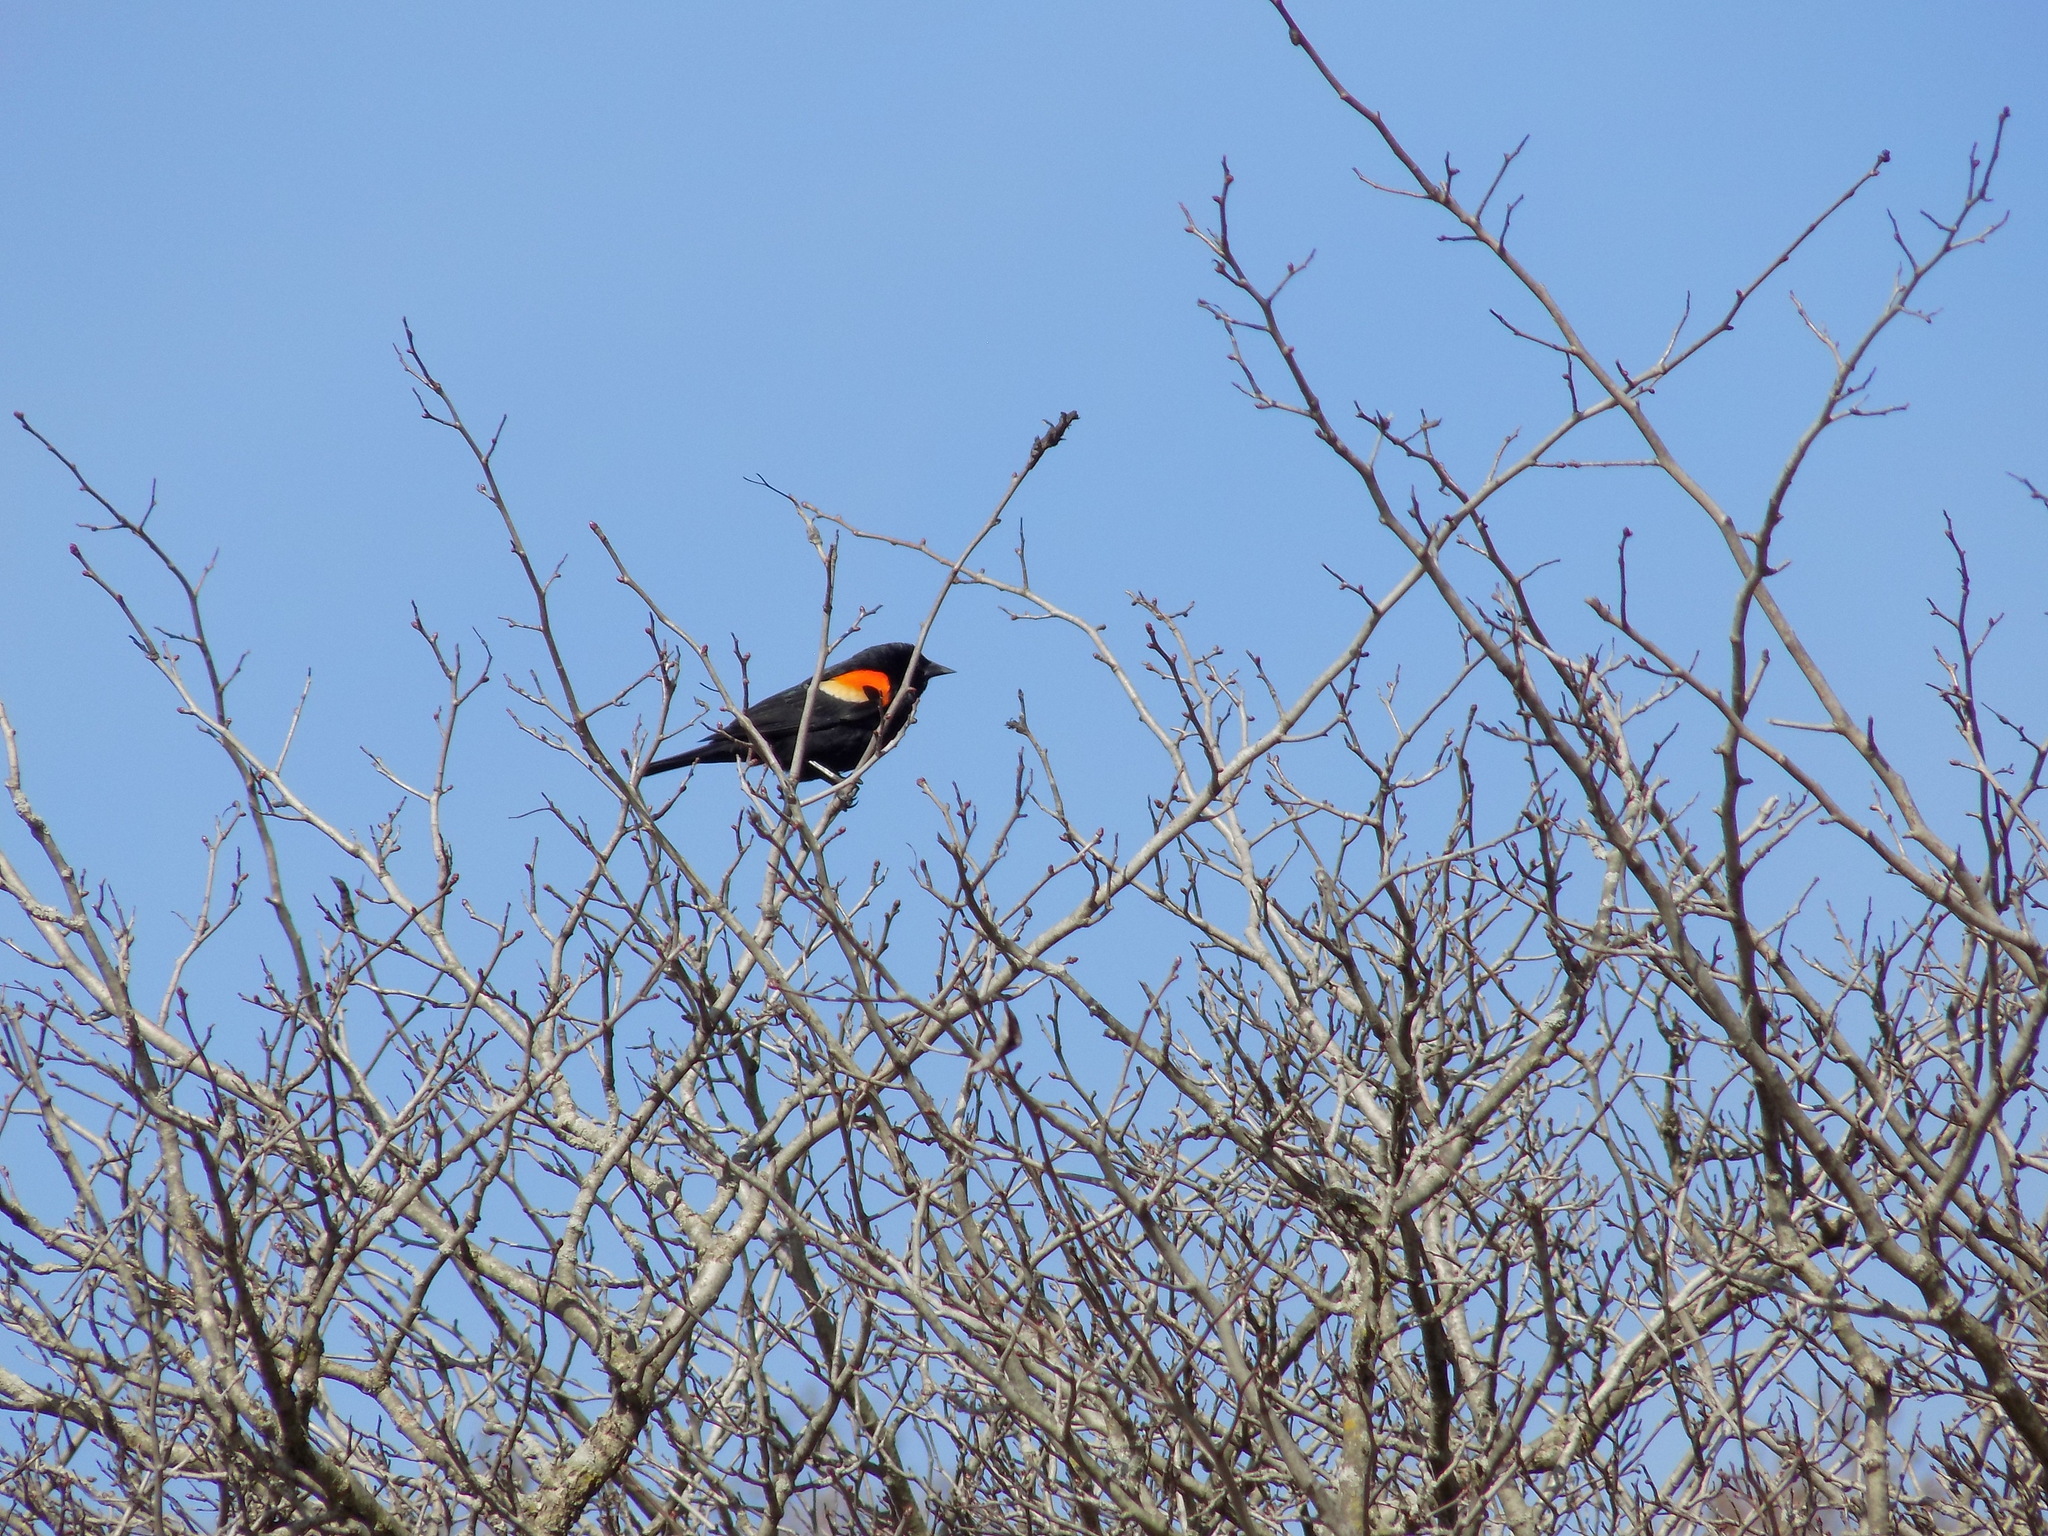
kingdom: Animalia
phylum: Chordata
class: Aves
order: Passeriformes
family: Icteridae
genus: Agelaius
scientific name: Agelaius phoeniceus
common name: Red-winged blackbird
